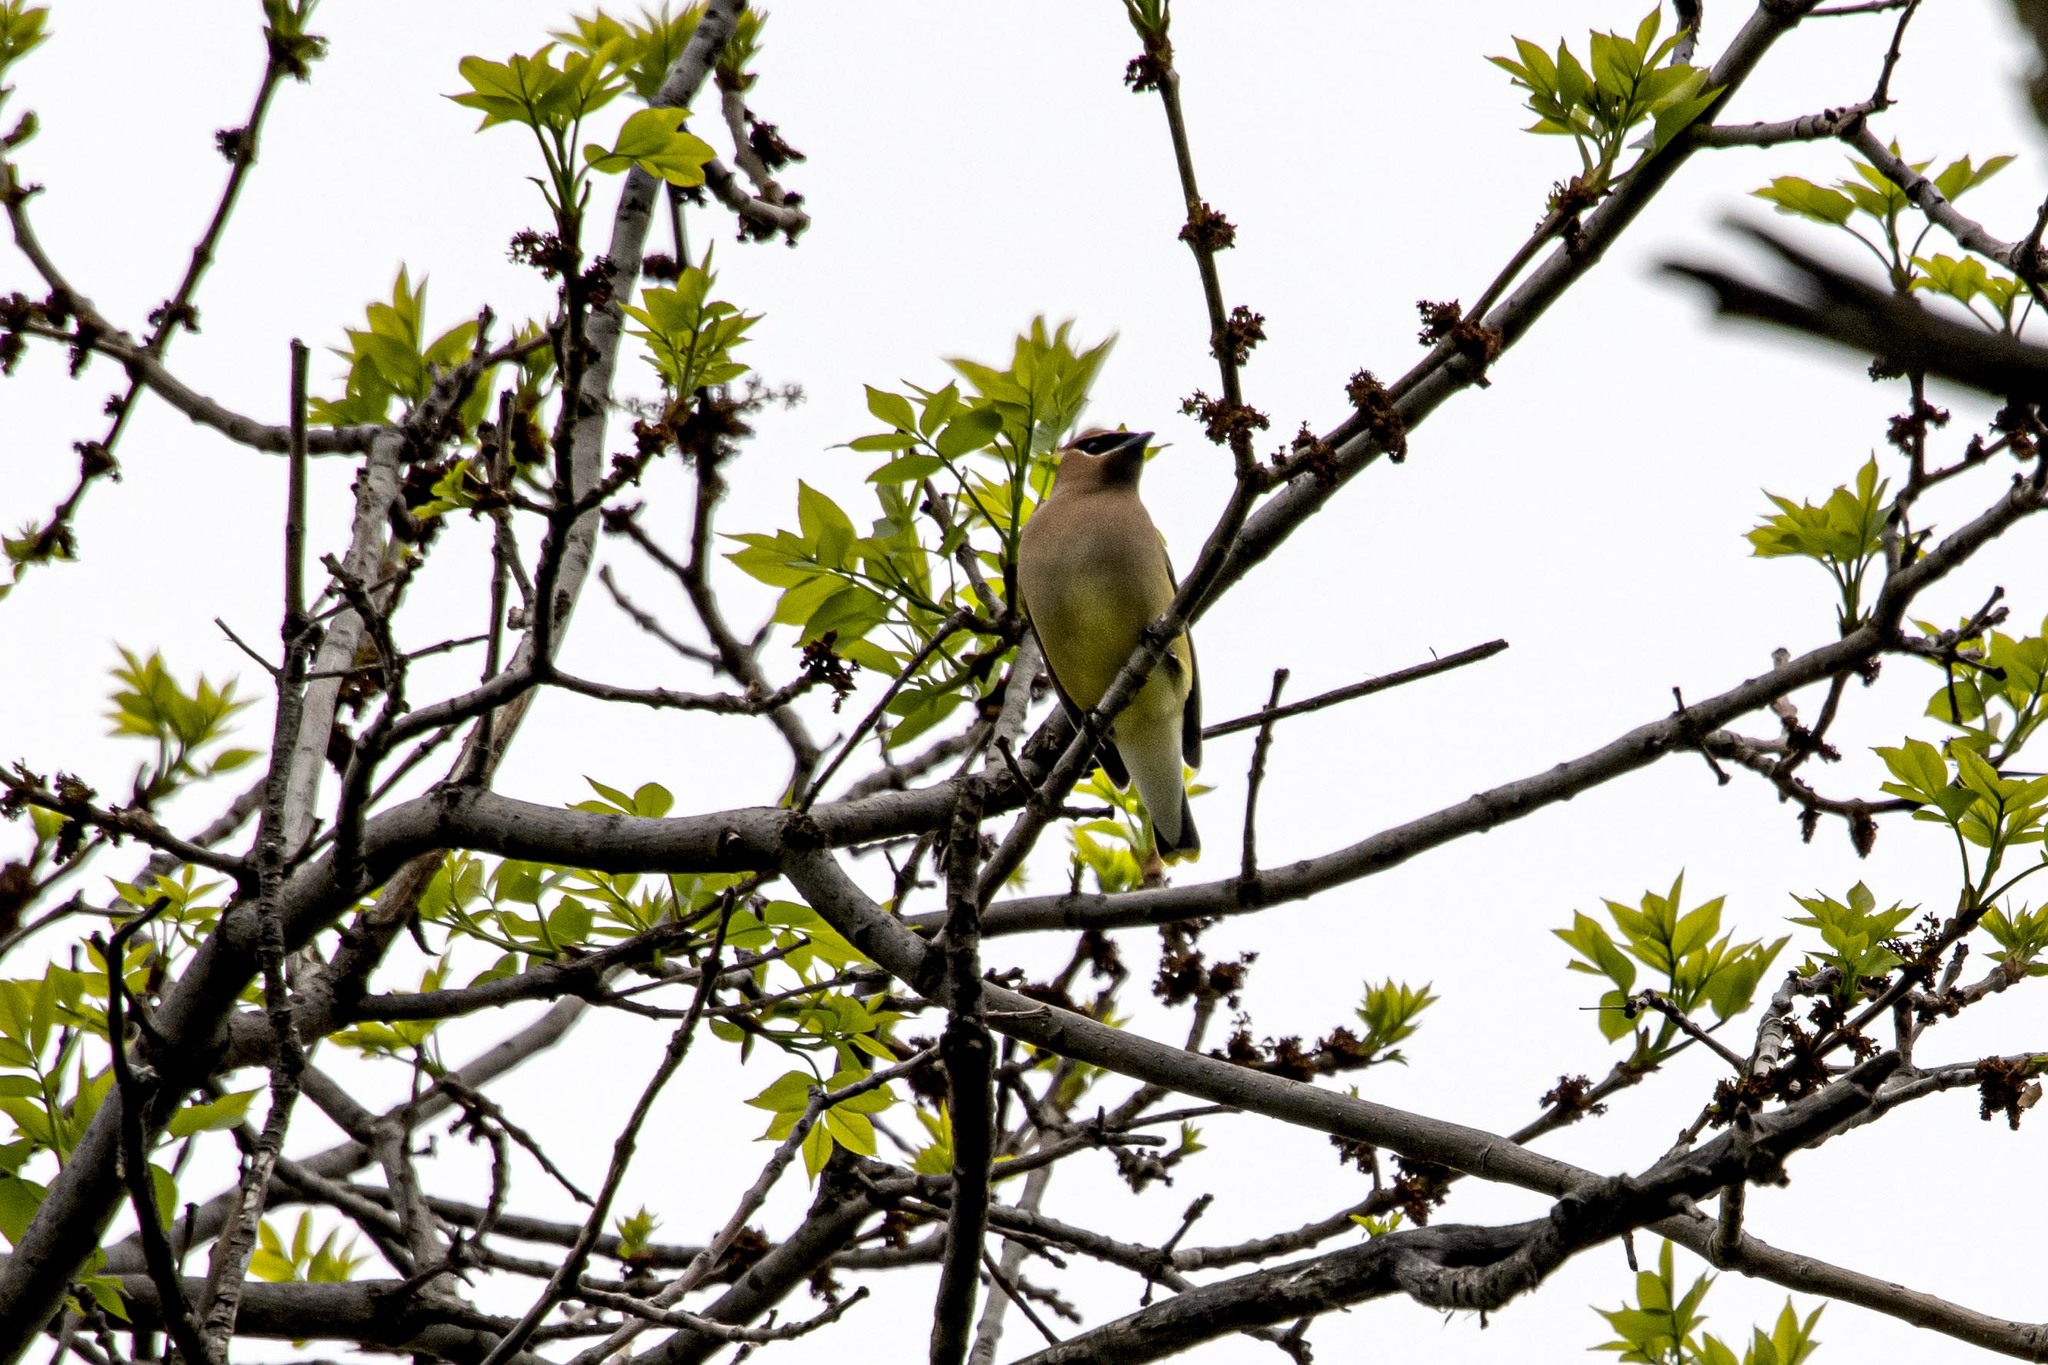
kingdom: Animalia
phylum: Chordata
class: Aves
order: Passeriformes
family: Bombycillidae
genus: Bombycilla
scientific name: Bombycilla cedrorum
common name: Cedar waxwing
